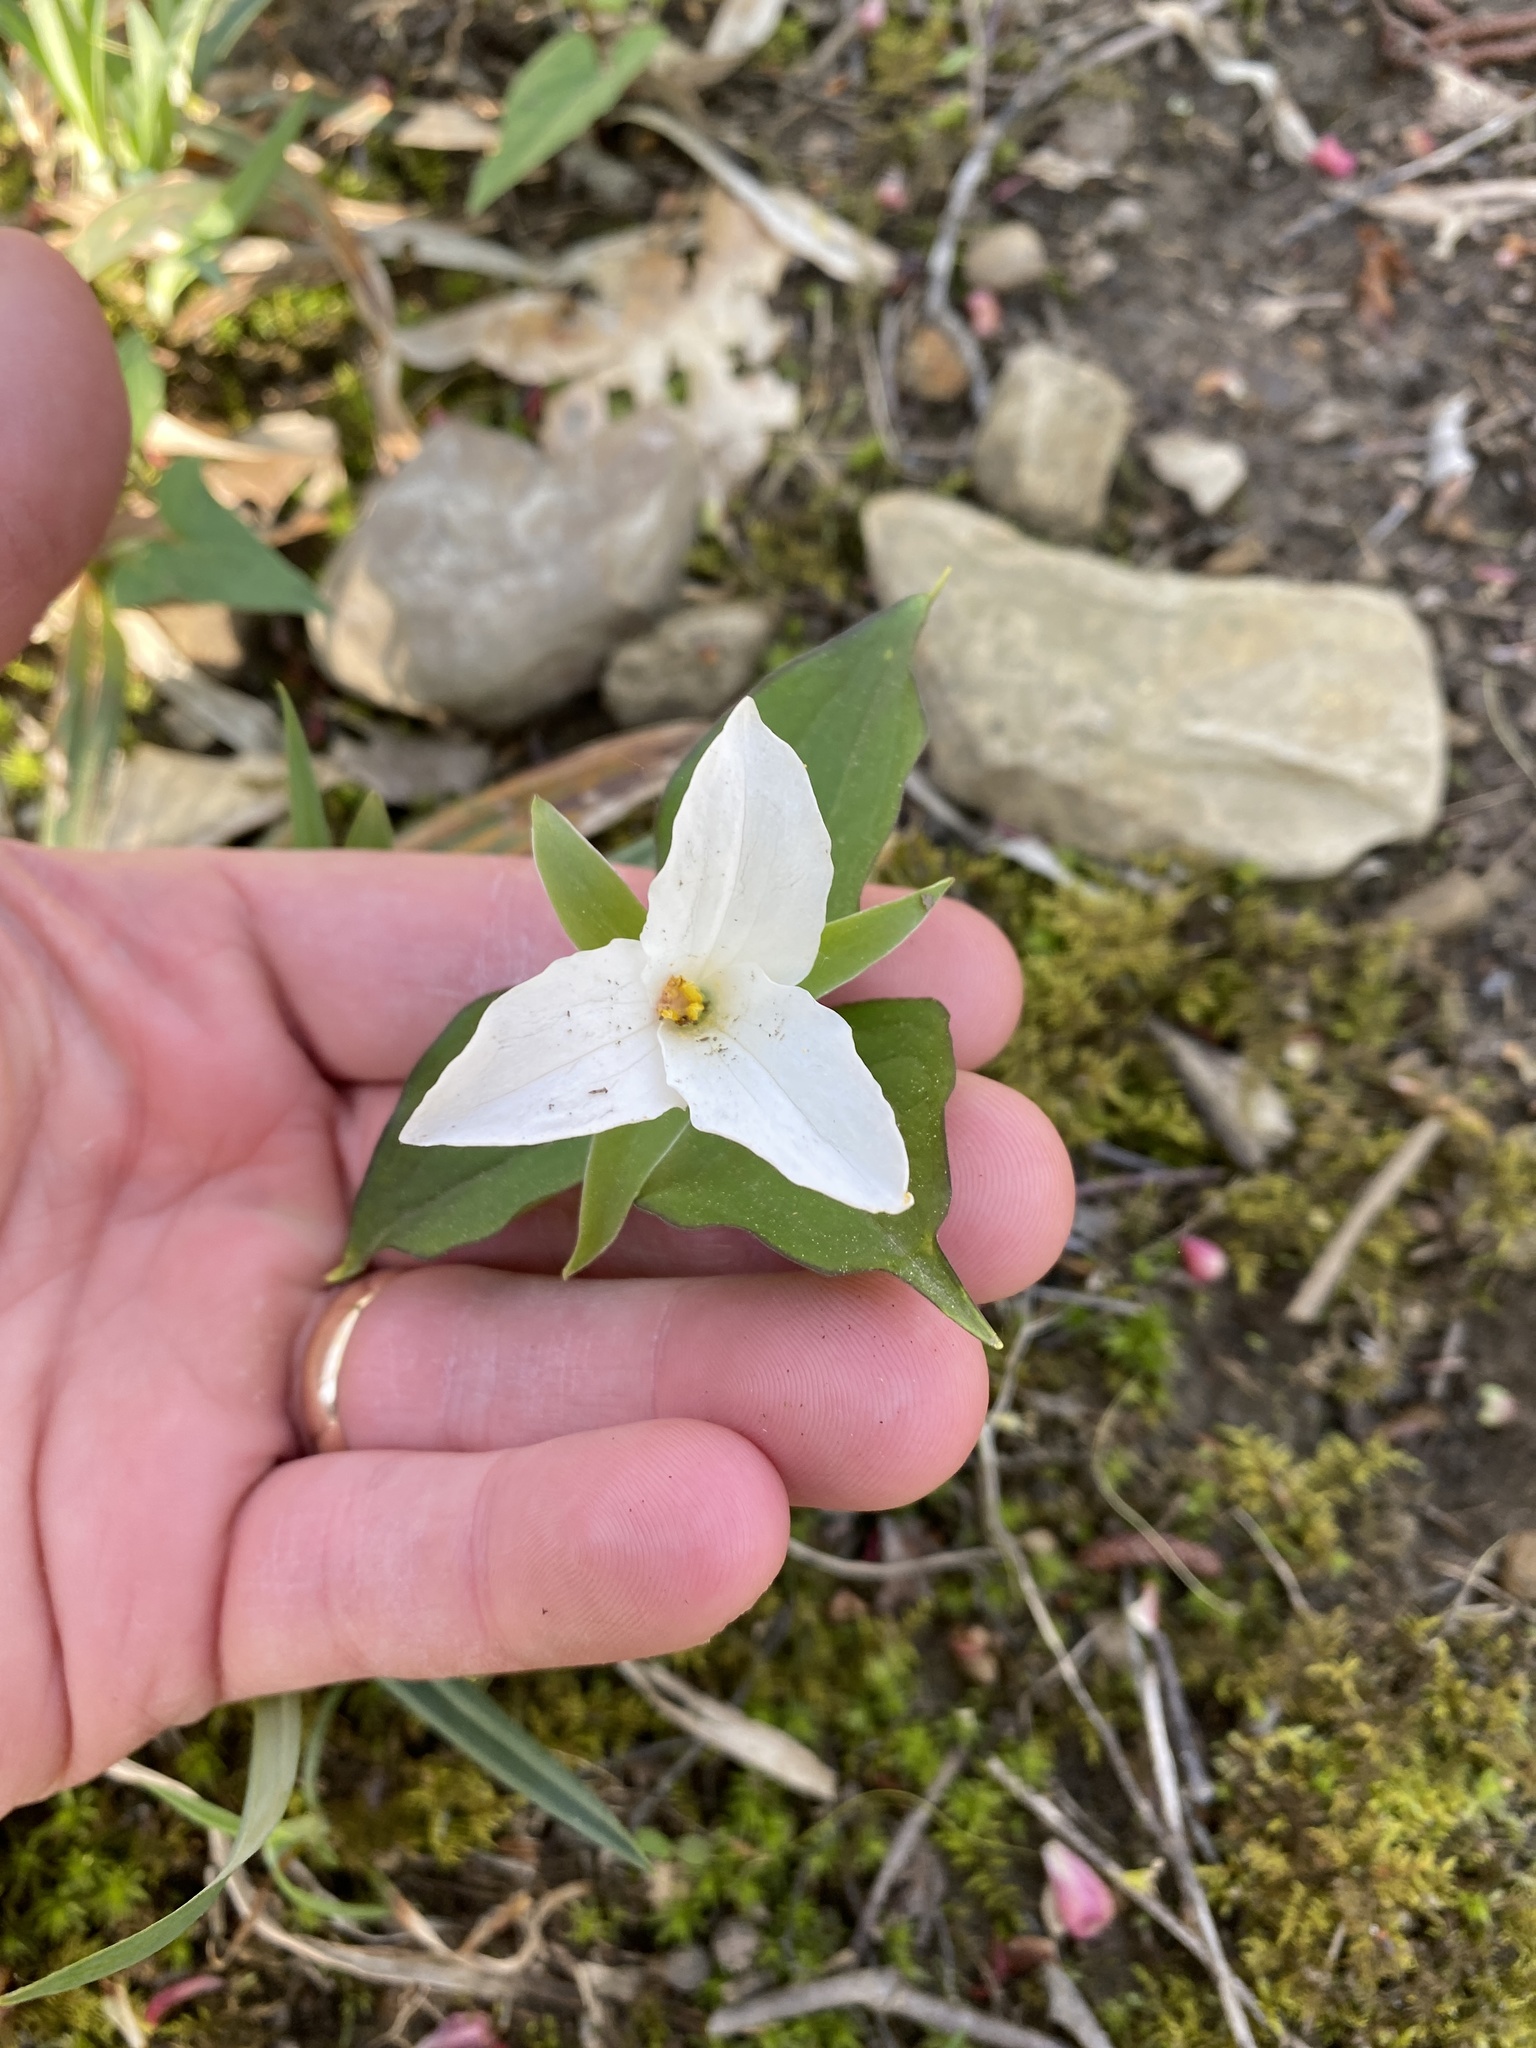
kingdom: Plantae
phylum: Tracheophyta
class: Liliopsida
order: Liliales
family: Melanthiaceae
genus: Trillium
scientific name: Trillium grandiflorum
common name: Great white trillium
